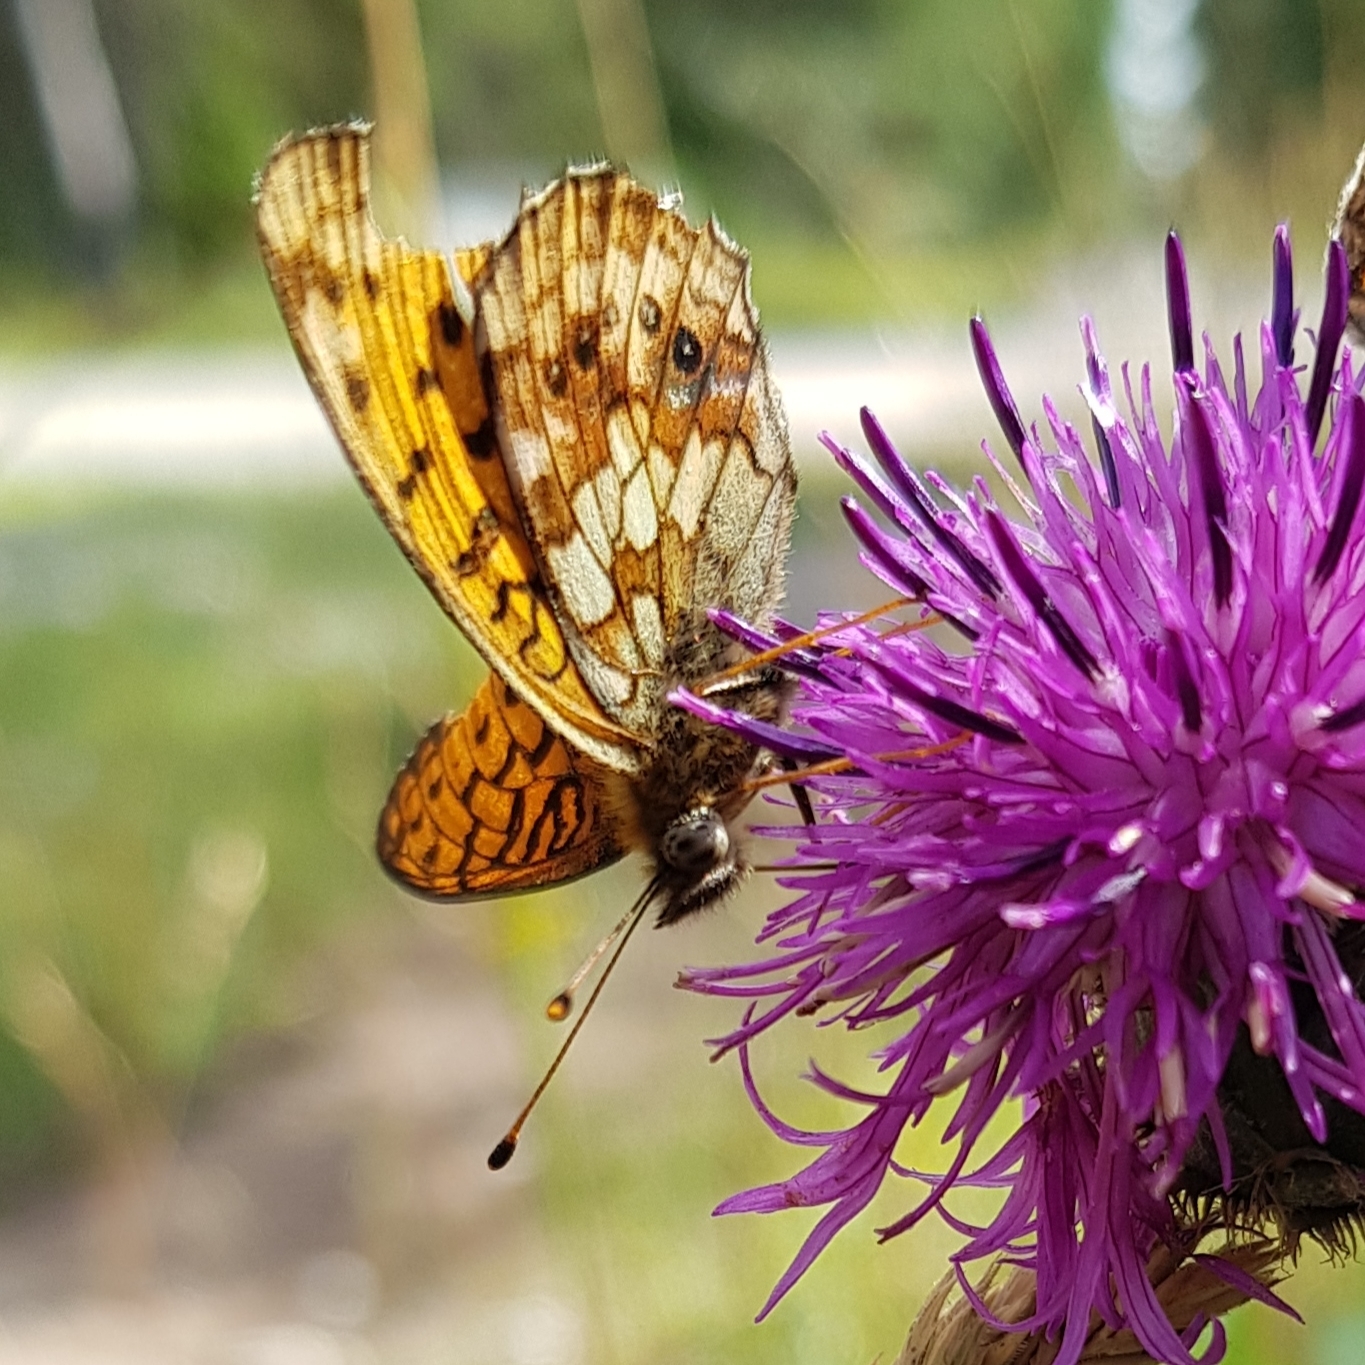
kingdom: Animalia
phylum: Arthropoda
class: Insecta
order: Lepidoptera
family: Nymphalidae
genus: Brenthis
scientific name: Brenthis ino
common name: Lesser marbled fritillary
